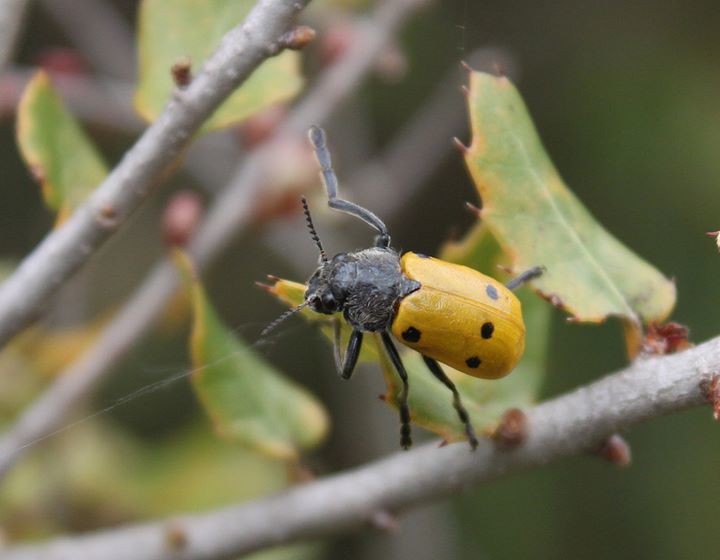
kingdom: Animalia
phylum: Arthropoda
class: Insecta
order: Coleoptera
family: Chrysomelidae
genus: Lachnaia
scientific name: Lachnaia sexpunctata
